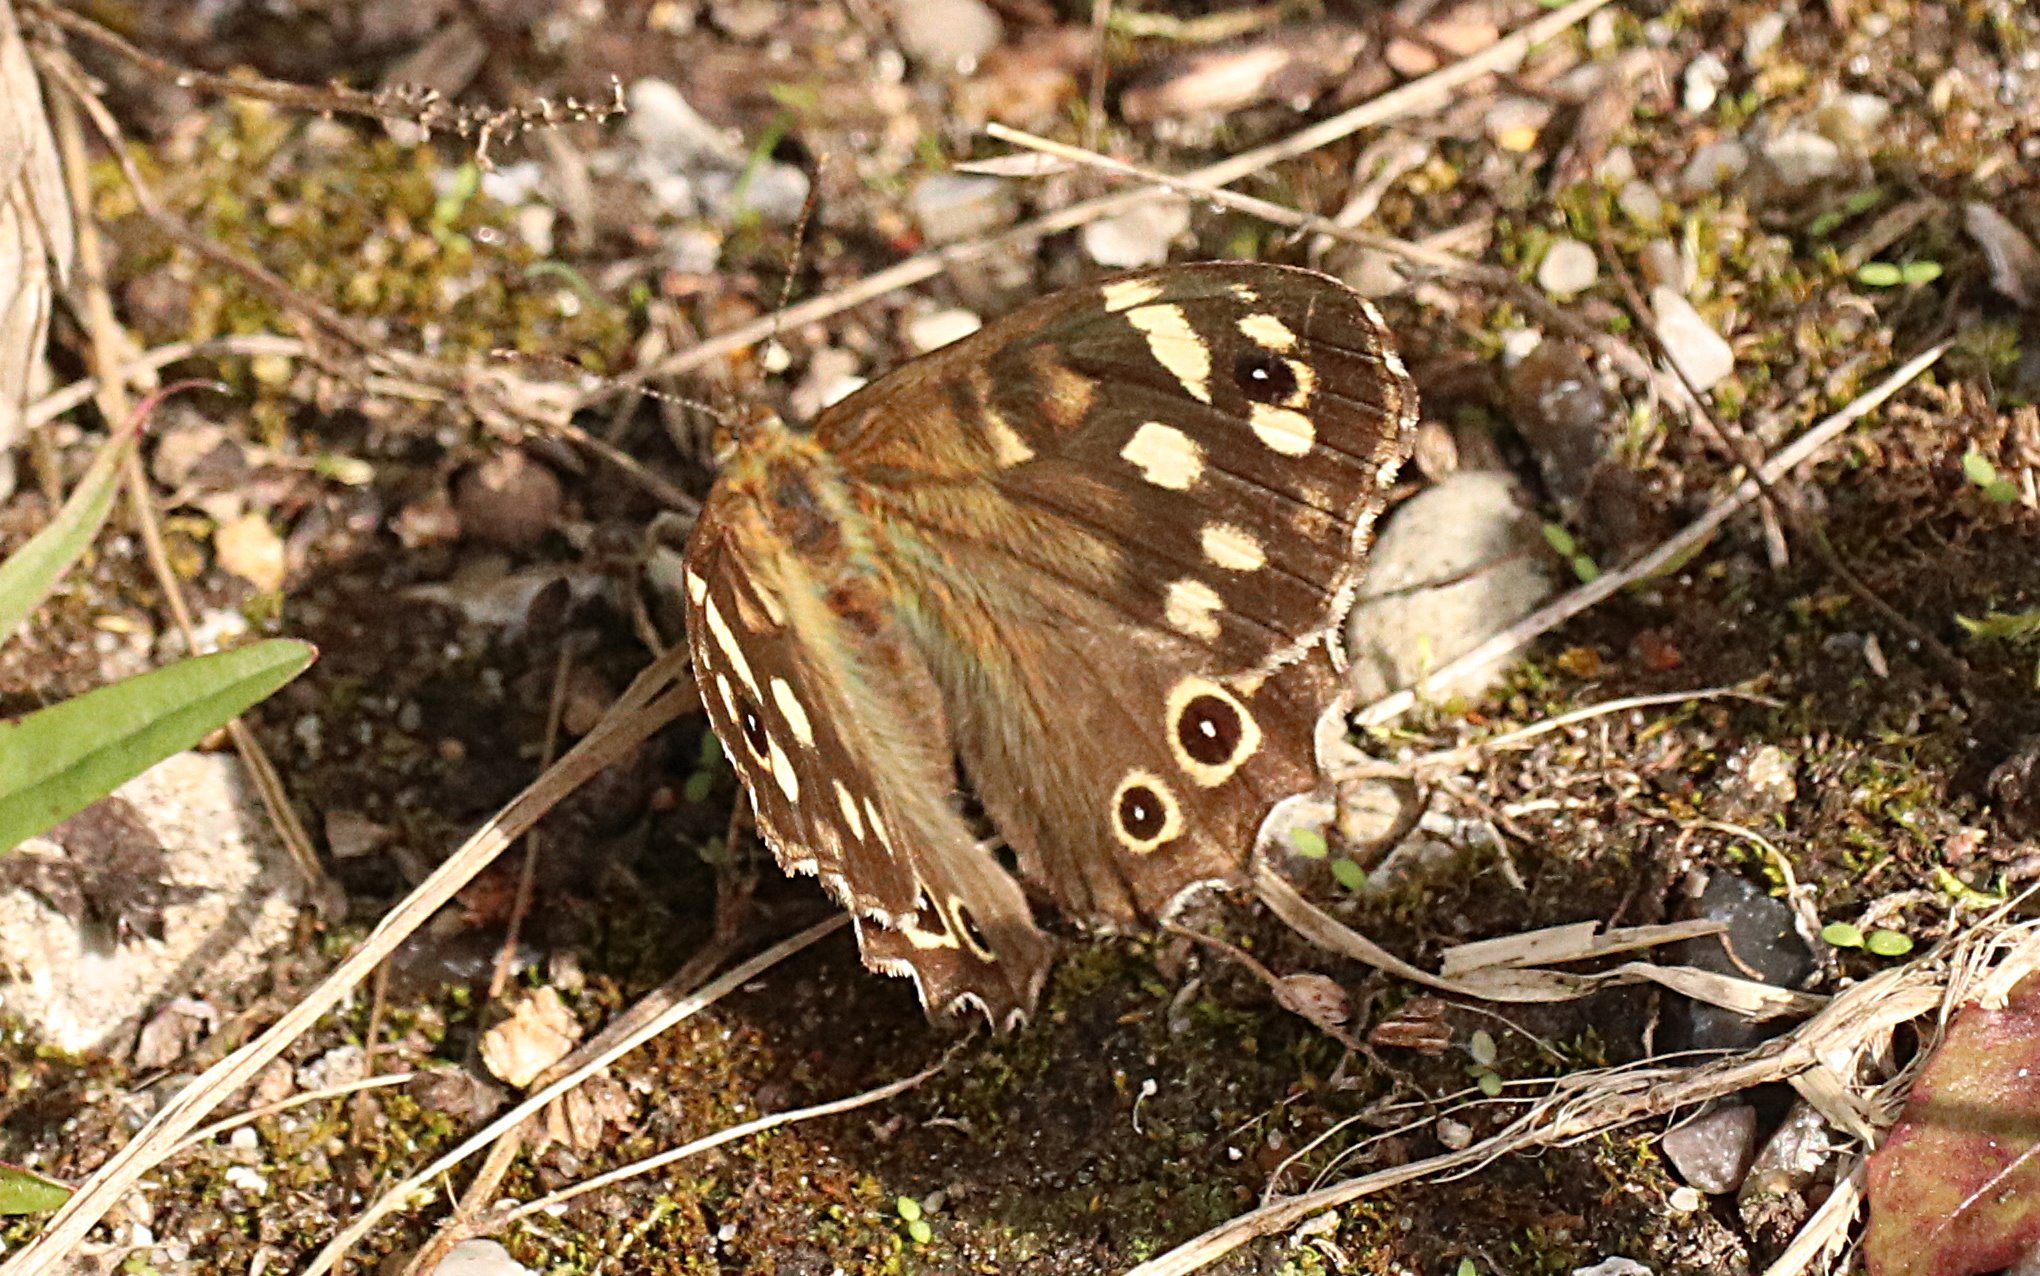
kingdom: Animalia
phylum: Arthropoda
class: Insecta
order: Lepidoptera
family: Nymphalidae
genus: Pararge
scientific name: Pararge aegeria
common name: Speckled wood
